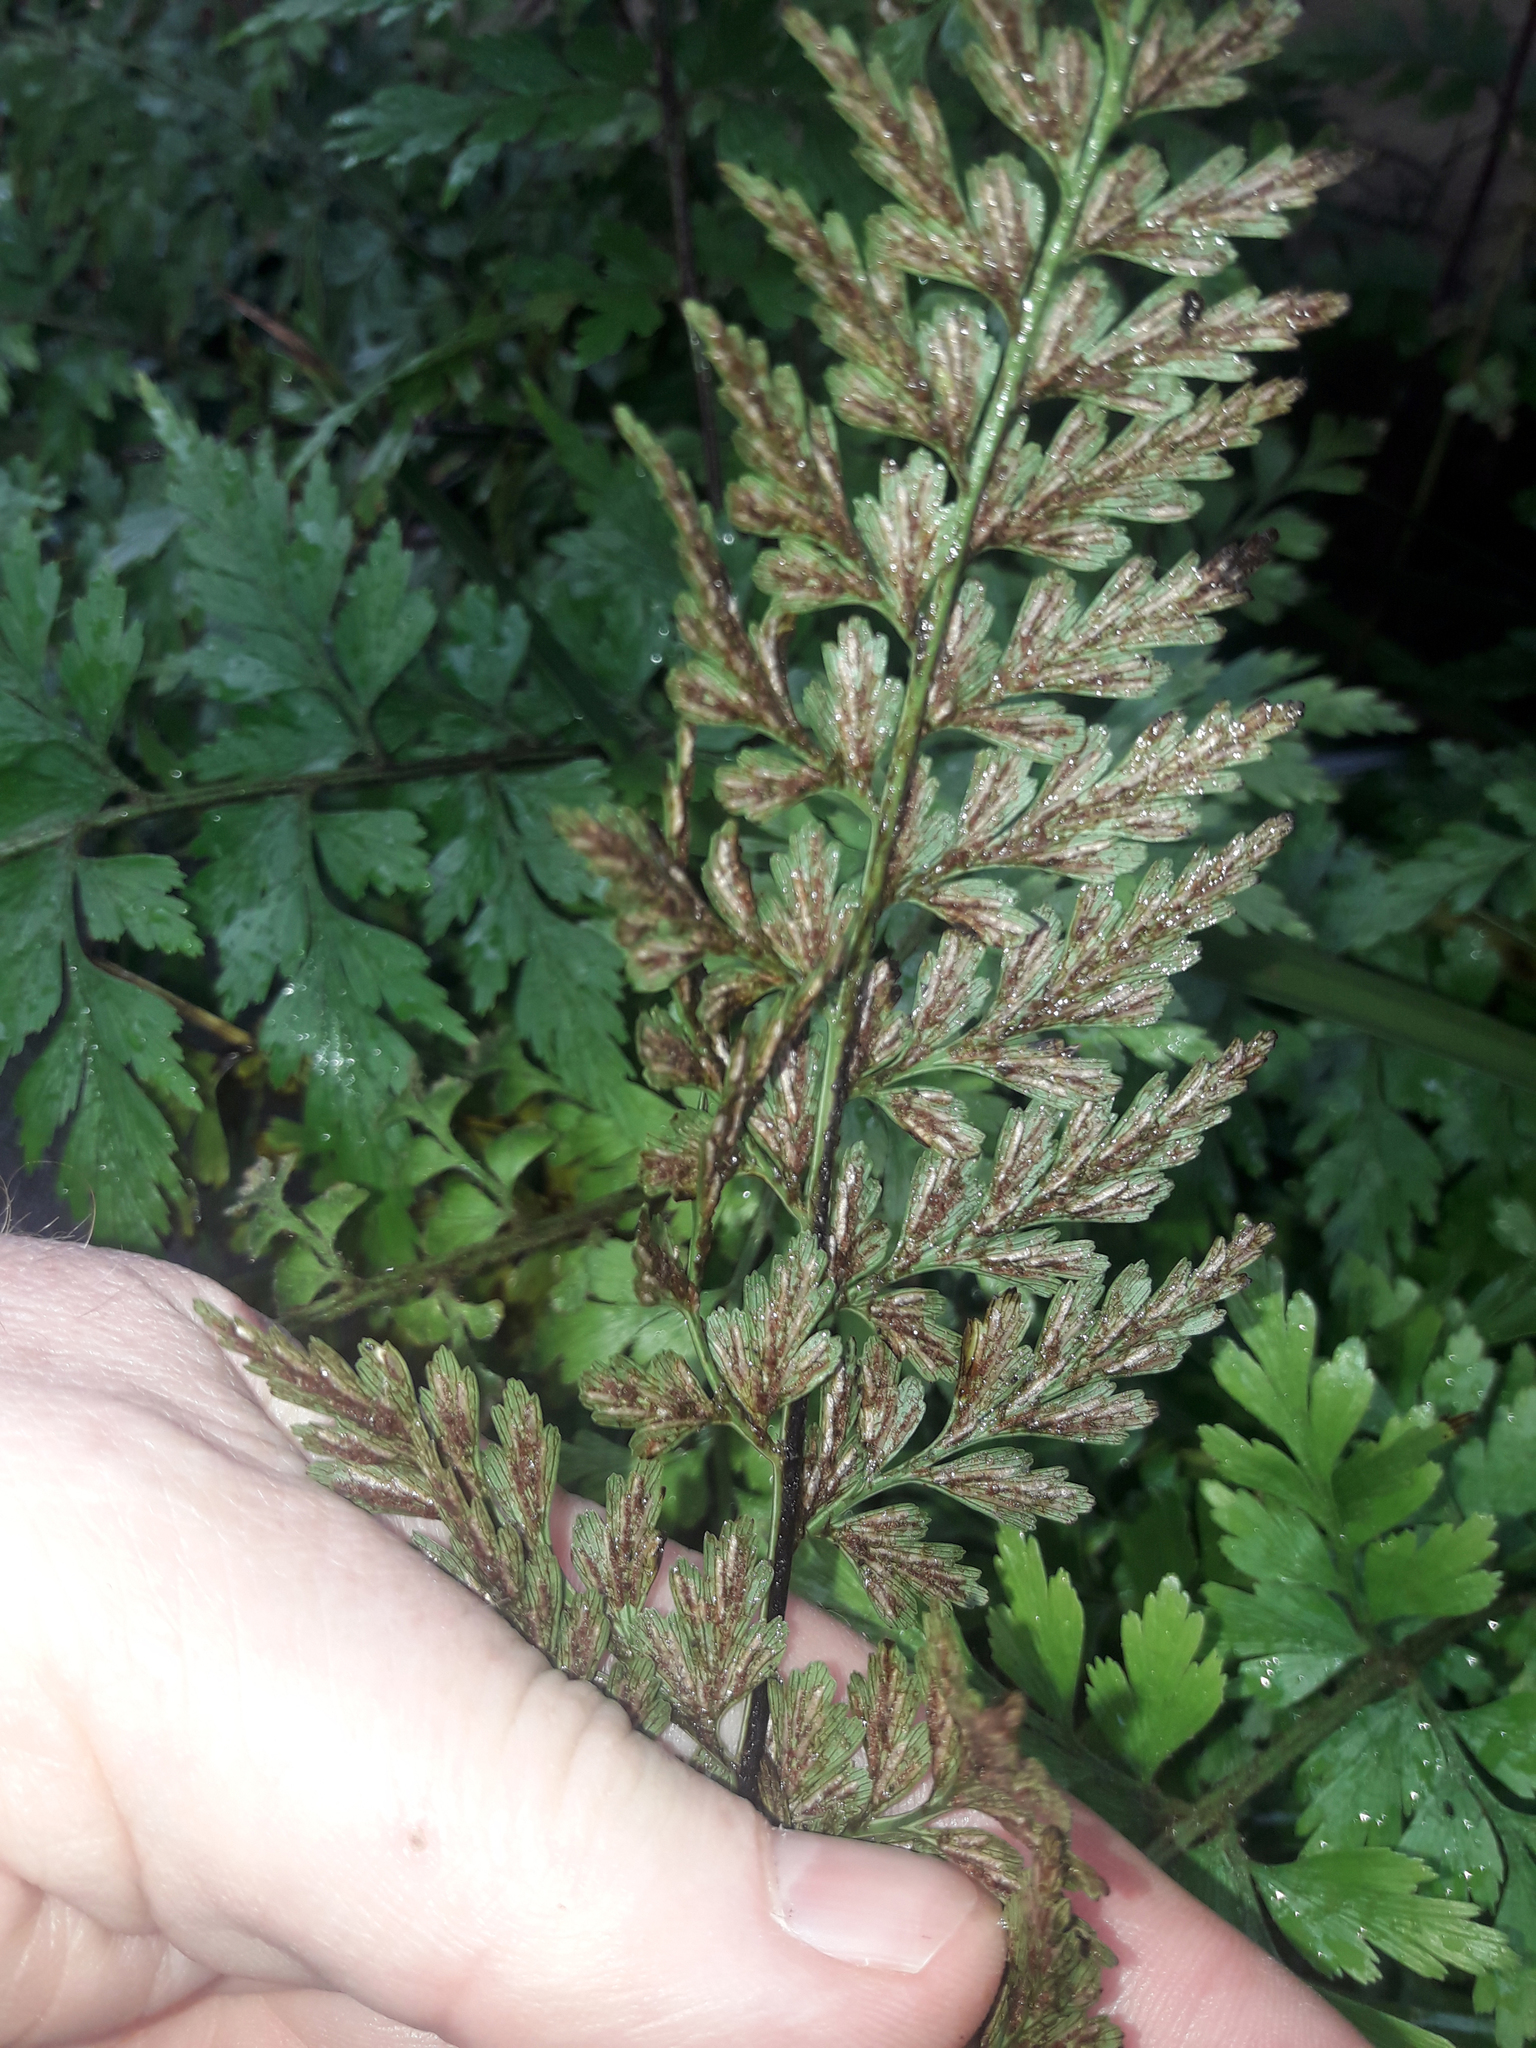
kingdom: Plantae
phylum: Tracheophyta
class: Polypodiopsida
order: Polypodiales
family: Aspleniaceae
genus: Asplenium
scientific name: Asplenium aethiopicum
